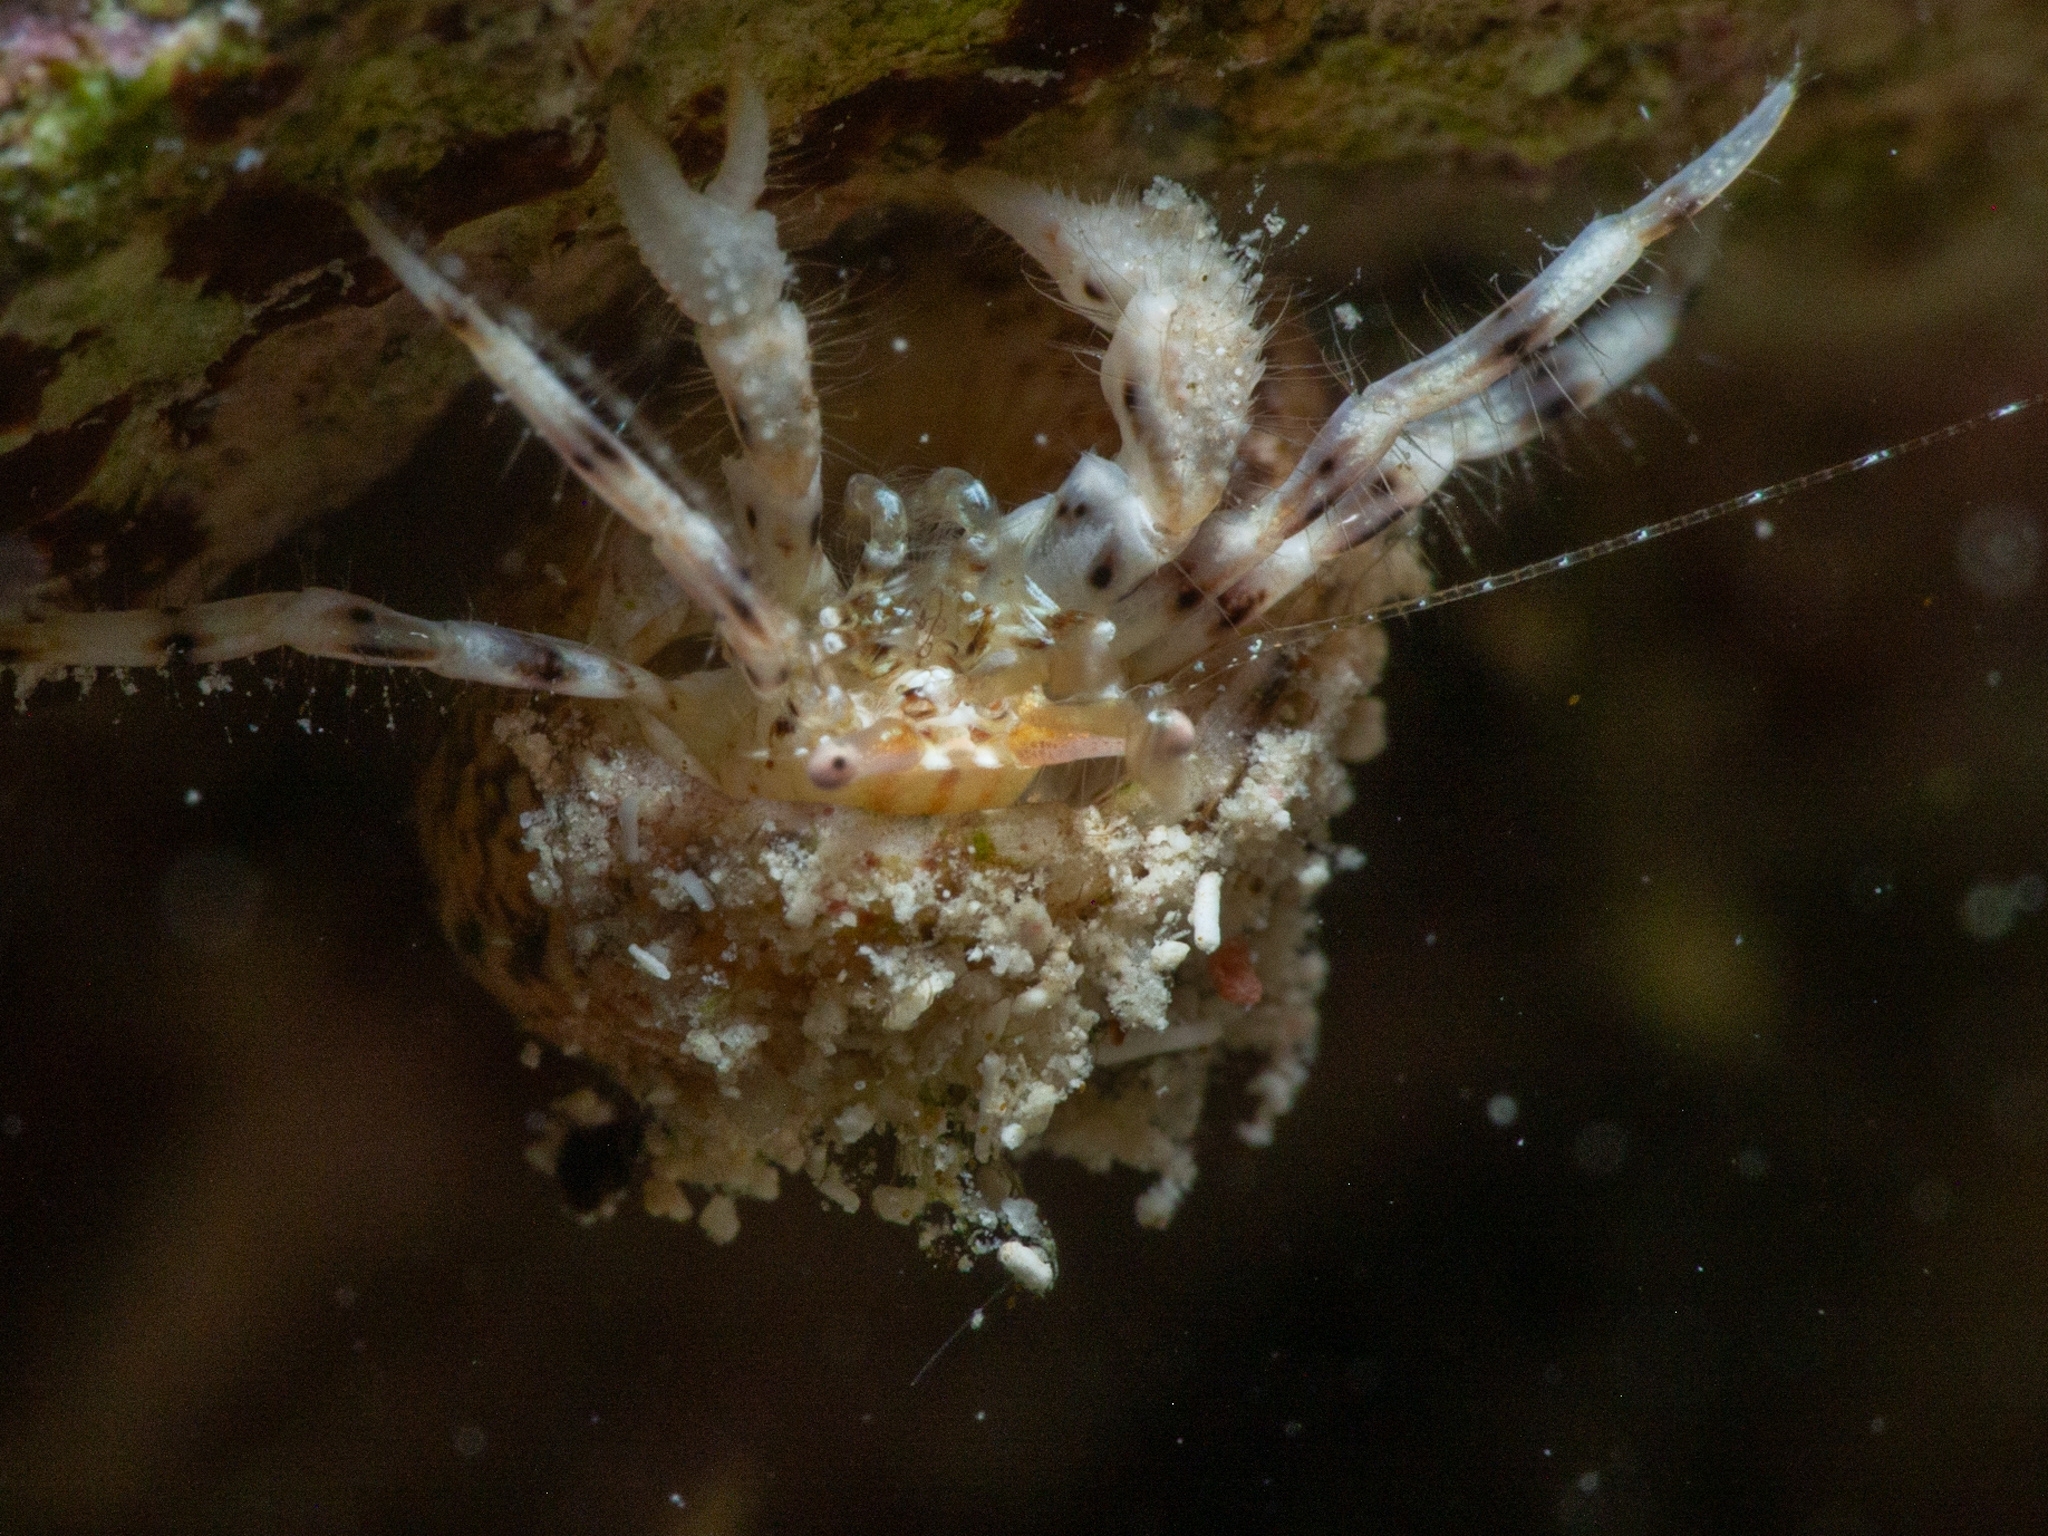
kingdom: Animalia
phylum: Arthropoda
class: Malacostraca
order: Decapoda
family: Paguridae
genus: Pagurus
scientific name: Pagurus brevidactylus
